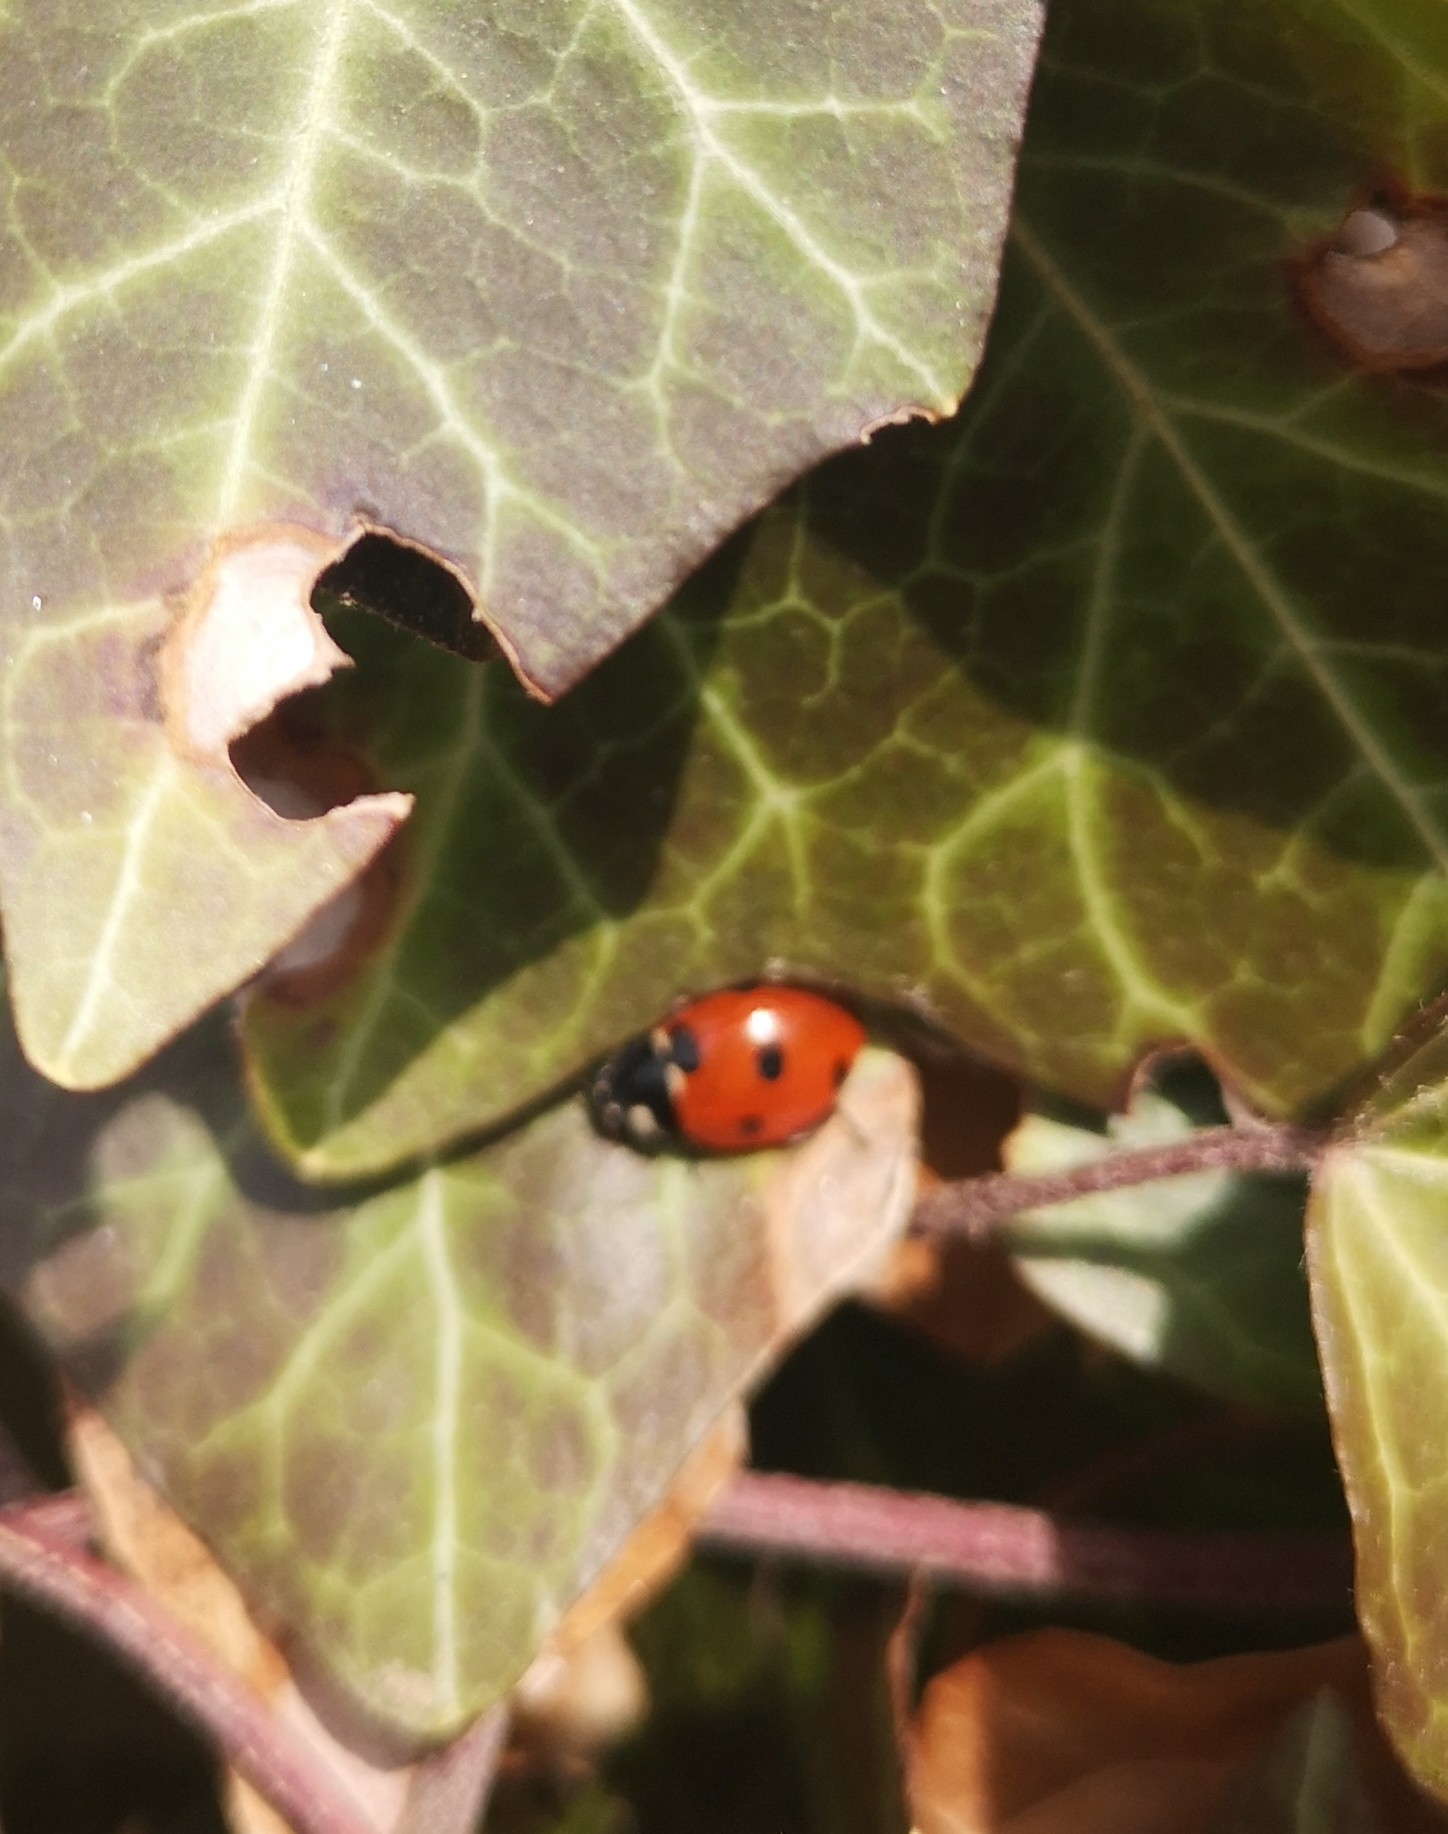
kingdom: Animalia
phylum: Arthropoda
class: Insecta
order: Coleoptera
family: Coccinellidae
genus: Coccinella
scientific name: Coccinella septempunctata
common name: Sevenspotted lady beetle
